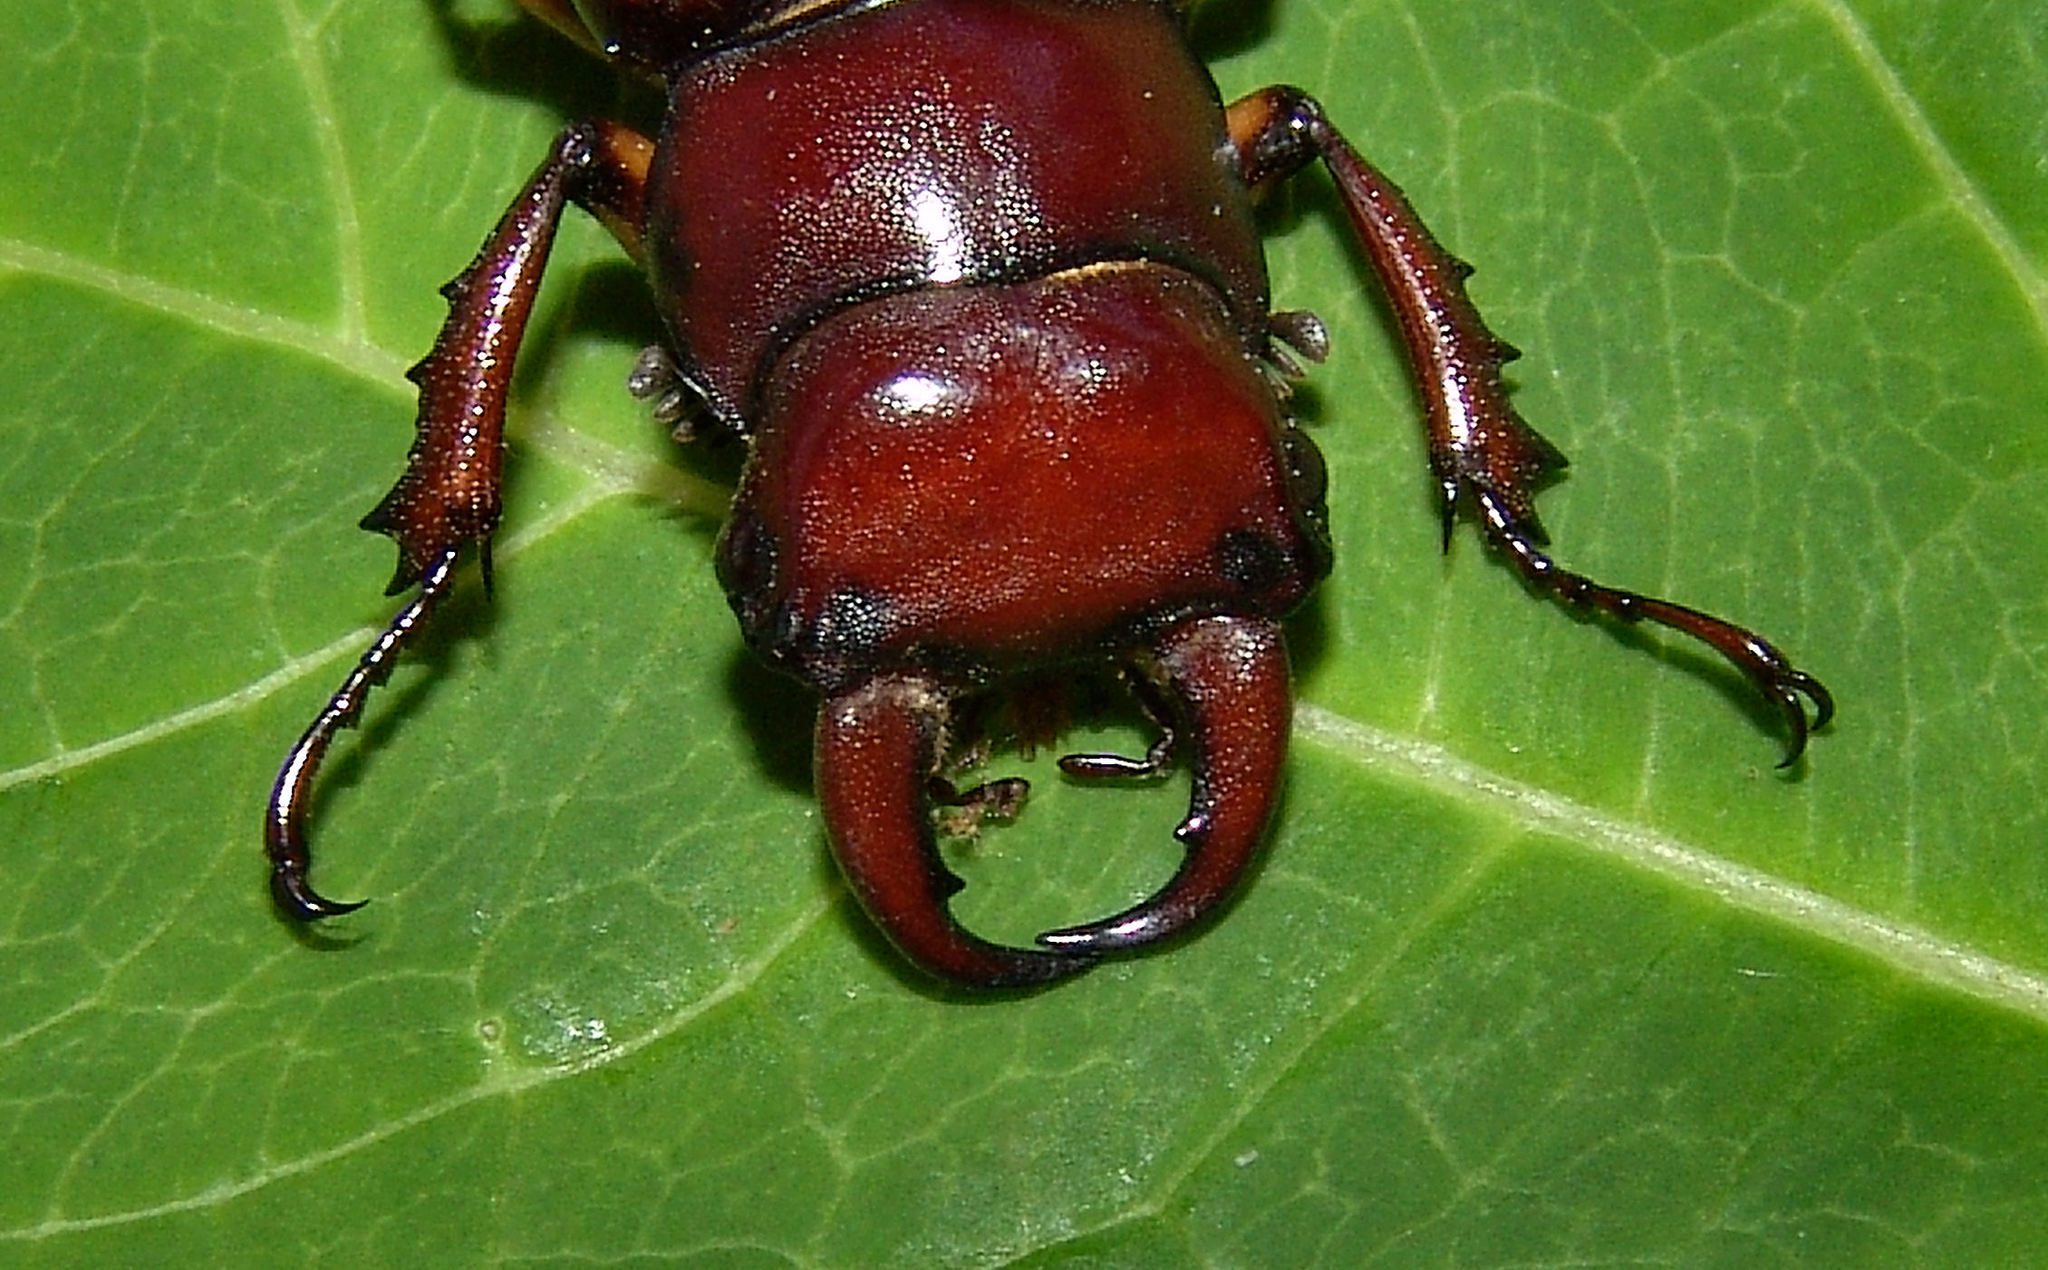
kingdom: Animalia
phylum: Arthropoda
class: Insecta
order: Coleoptera
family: Lucanidae
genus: Lucanus
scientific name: Lucanus capreolus
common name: Stag beetle
